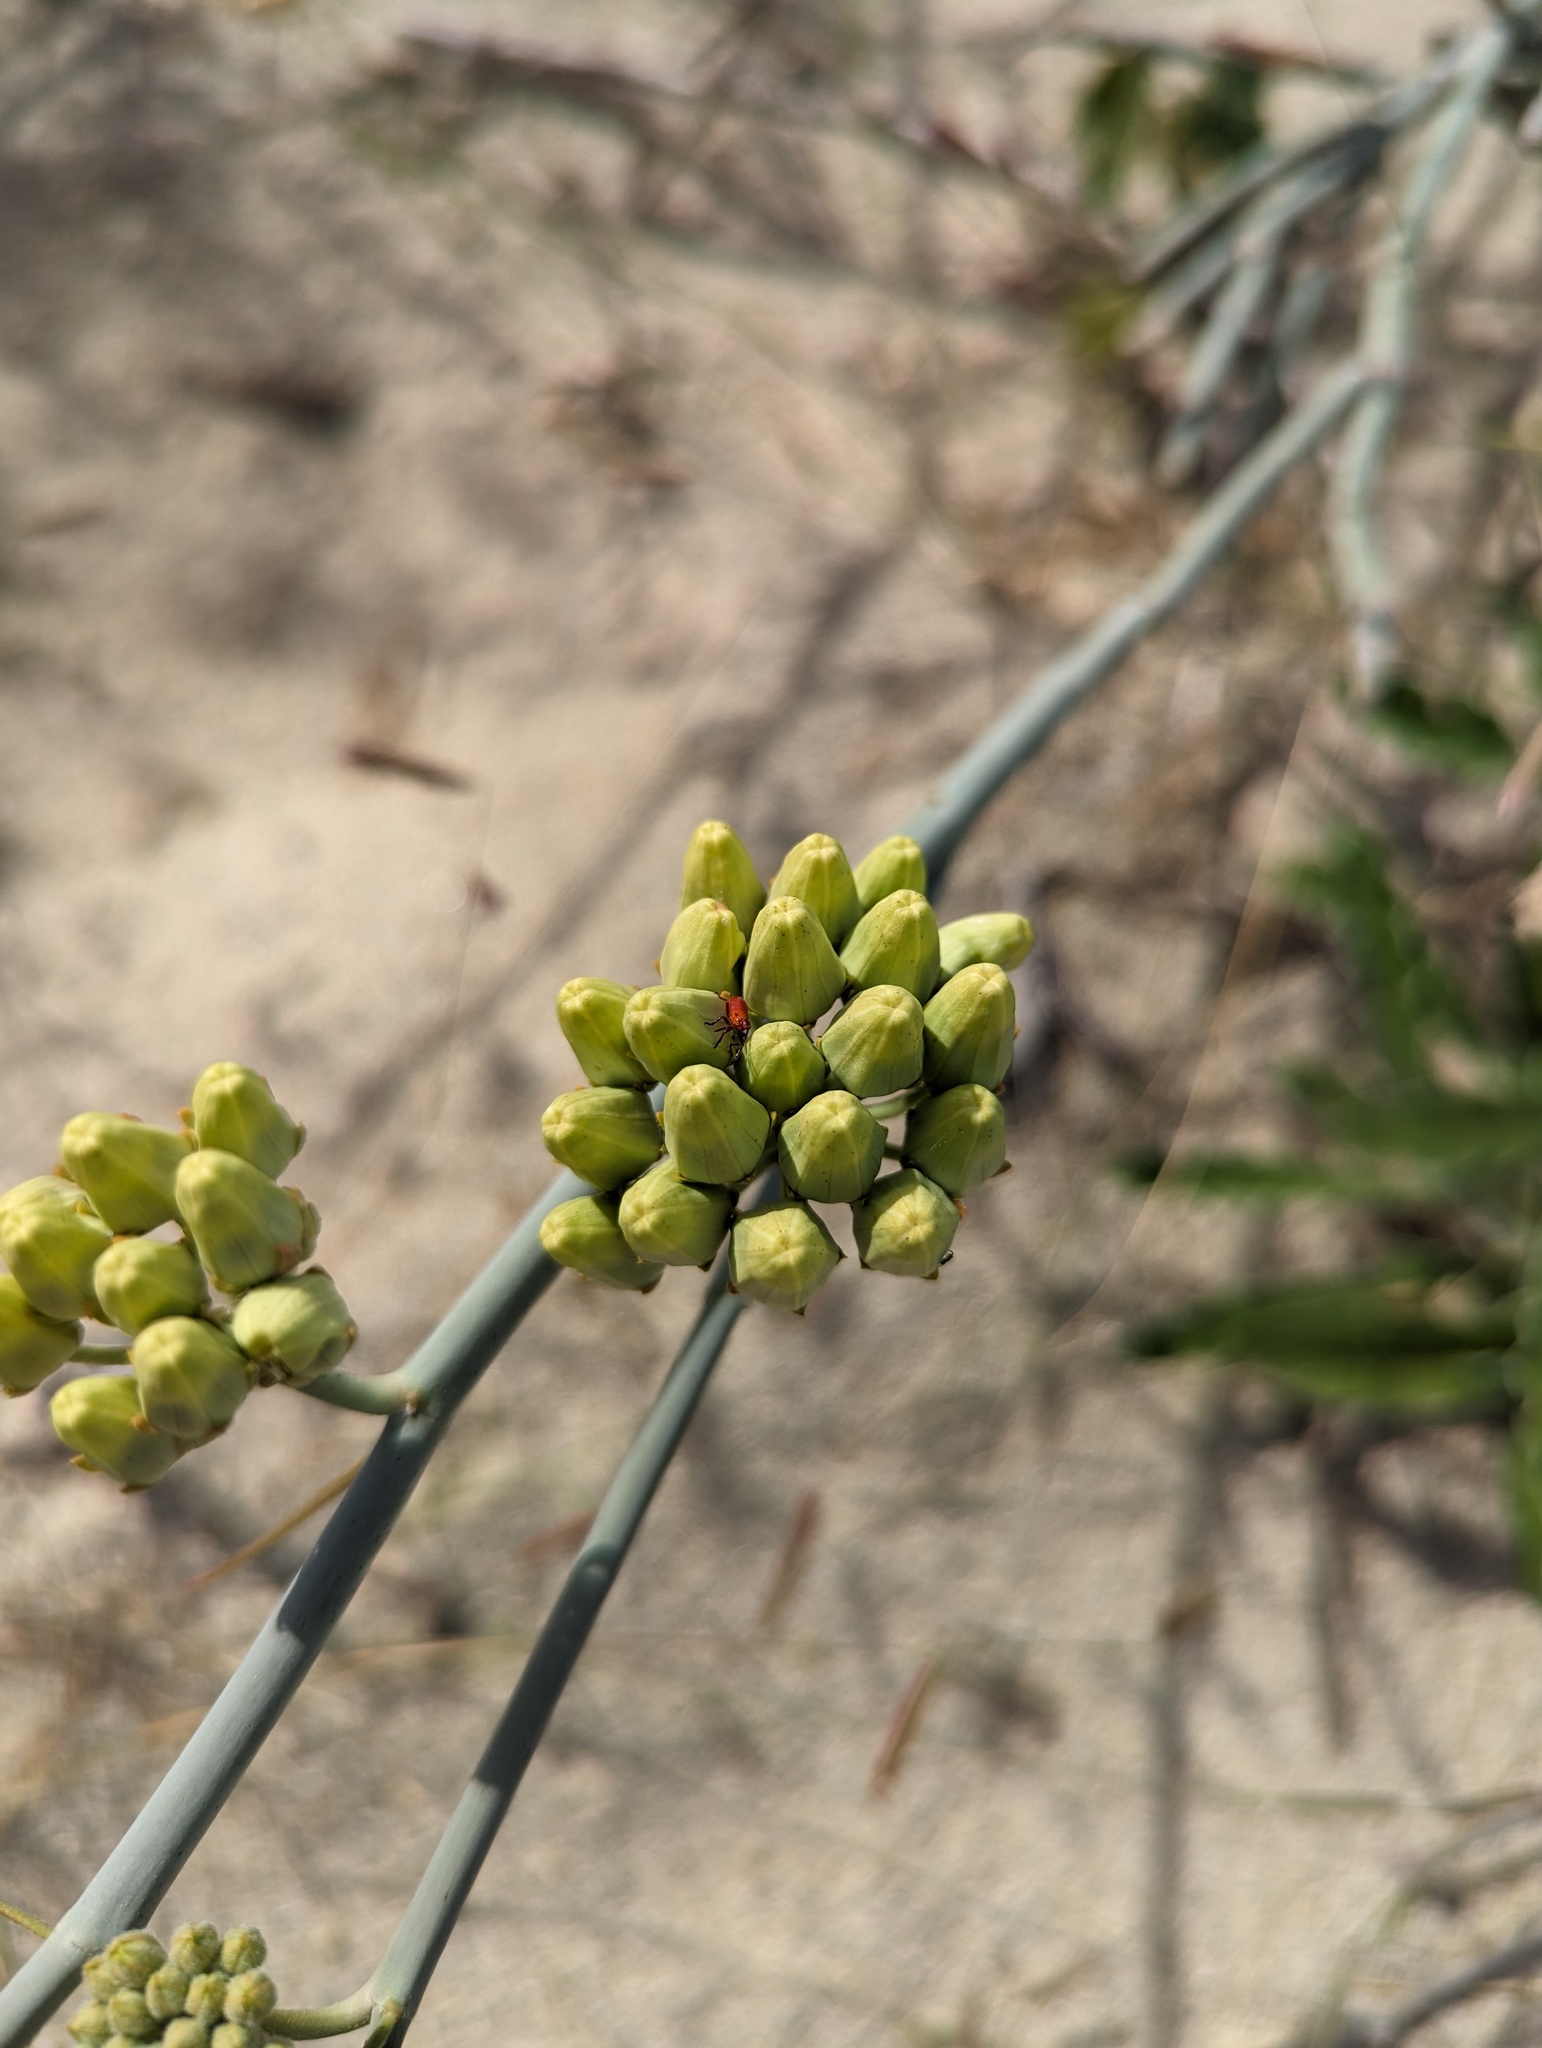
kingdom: Plantae
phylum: Tracheophyta
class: Magnoliopsida
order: Gentianales
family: Apocynaceae
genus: Asclepias
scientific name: Asclepias subulata
